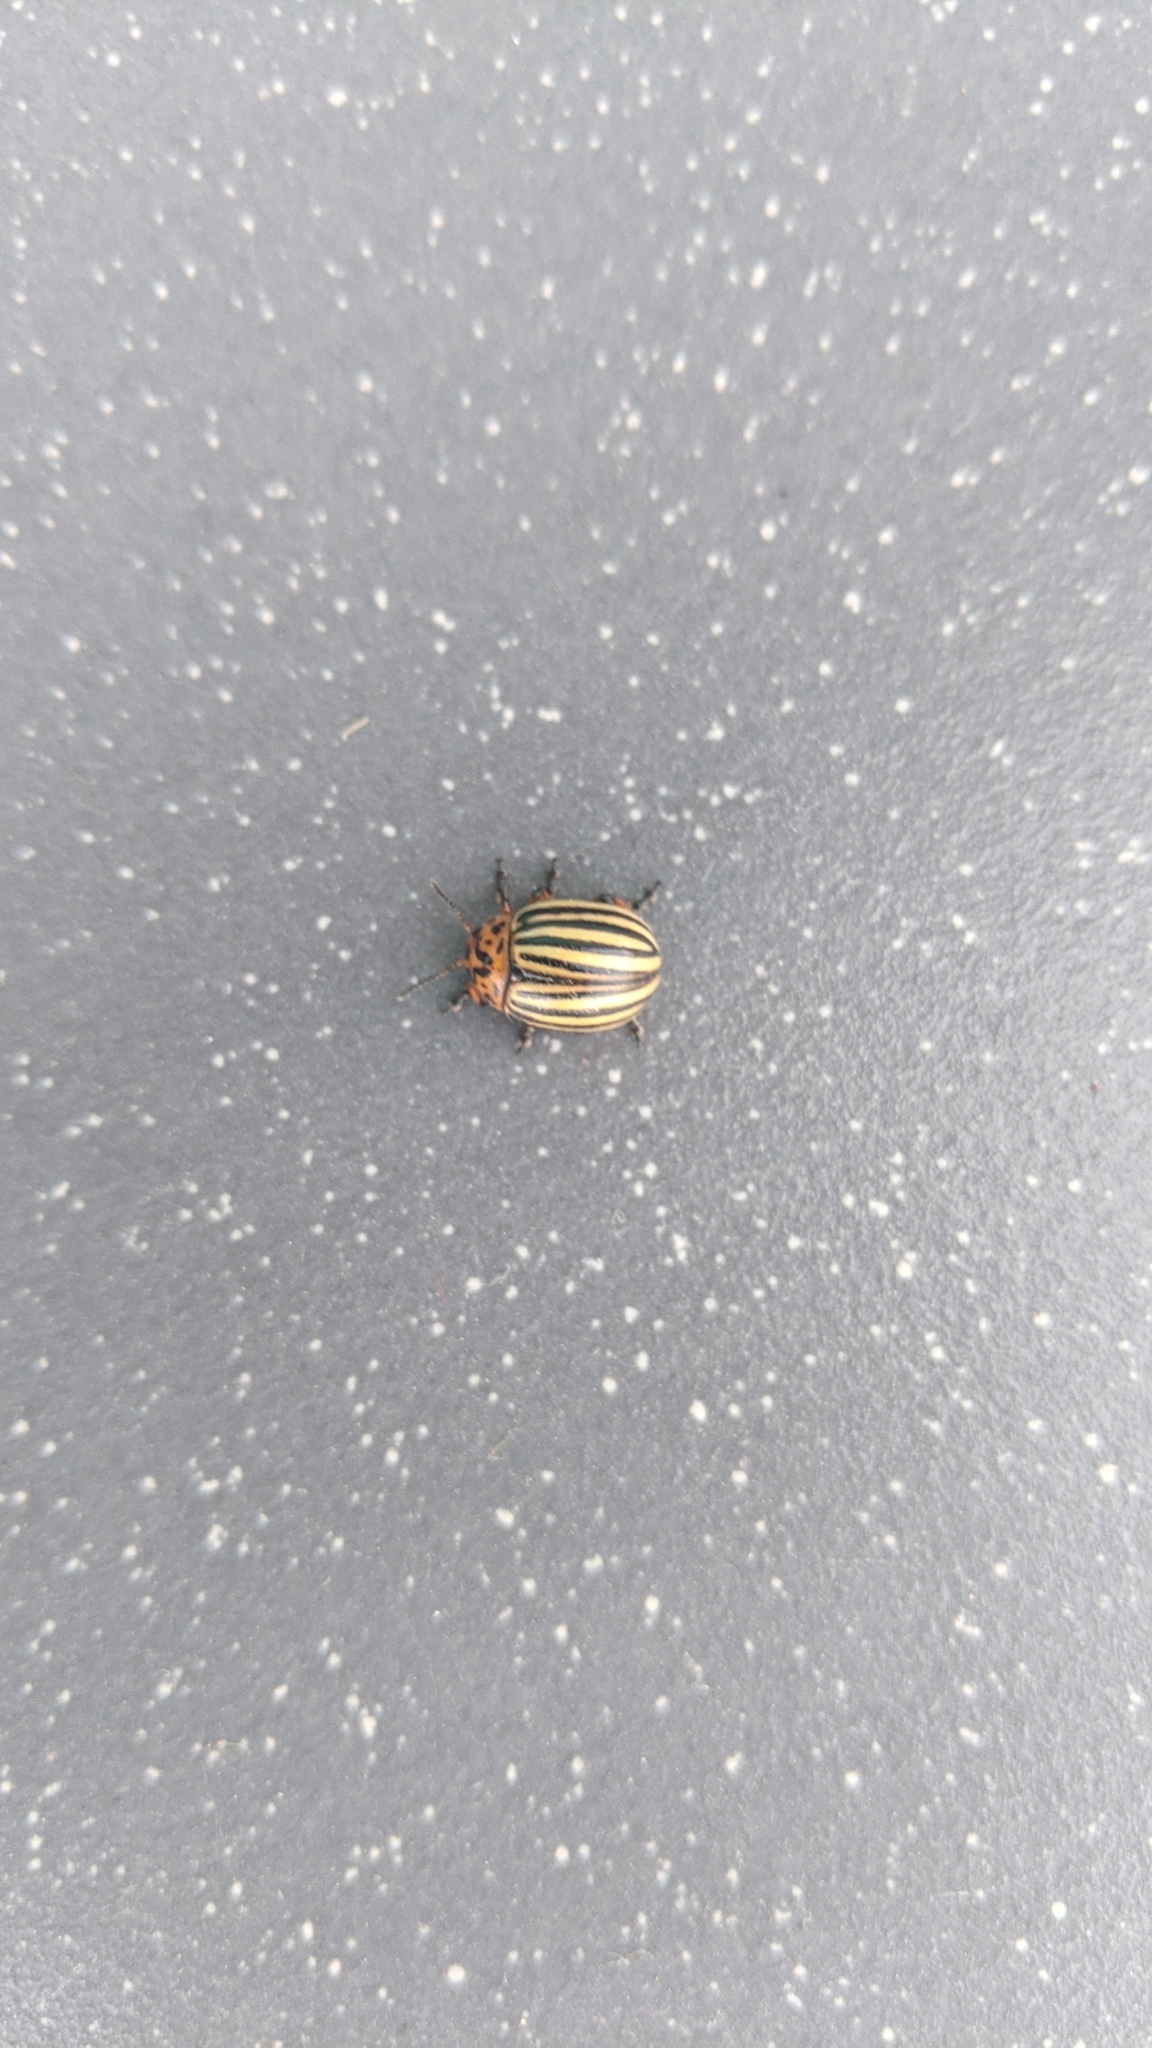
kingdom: Animalia
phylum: Arthropoda
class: Insecta
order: Coleoptera
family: Chrysomelidae
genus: Leptinotarsa
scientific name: Leptinotarsa decemlineata
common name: Colorado potato beetle
